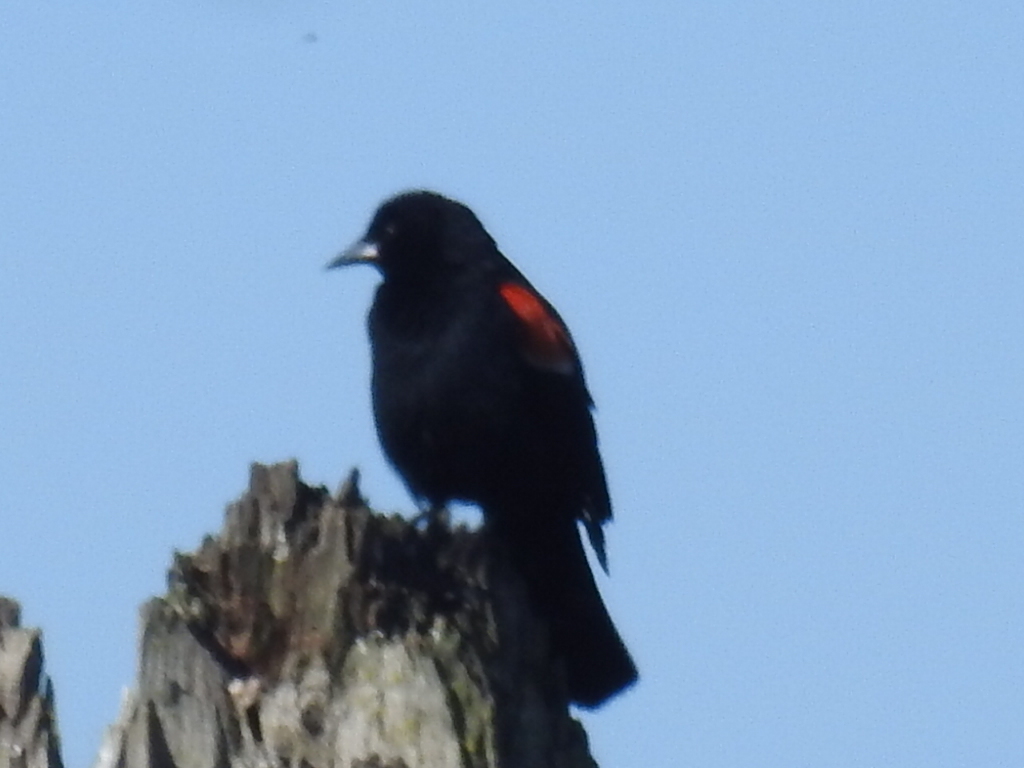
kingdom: Animalia
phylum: Chordata
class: Aves
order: Passeriformes
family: Icteridae
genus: Agelaius
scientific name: Agelaius phoeniceus
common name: Red-winged blackbird
